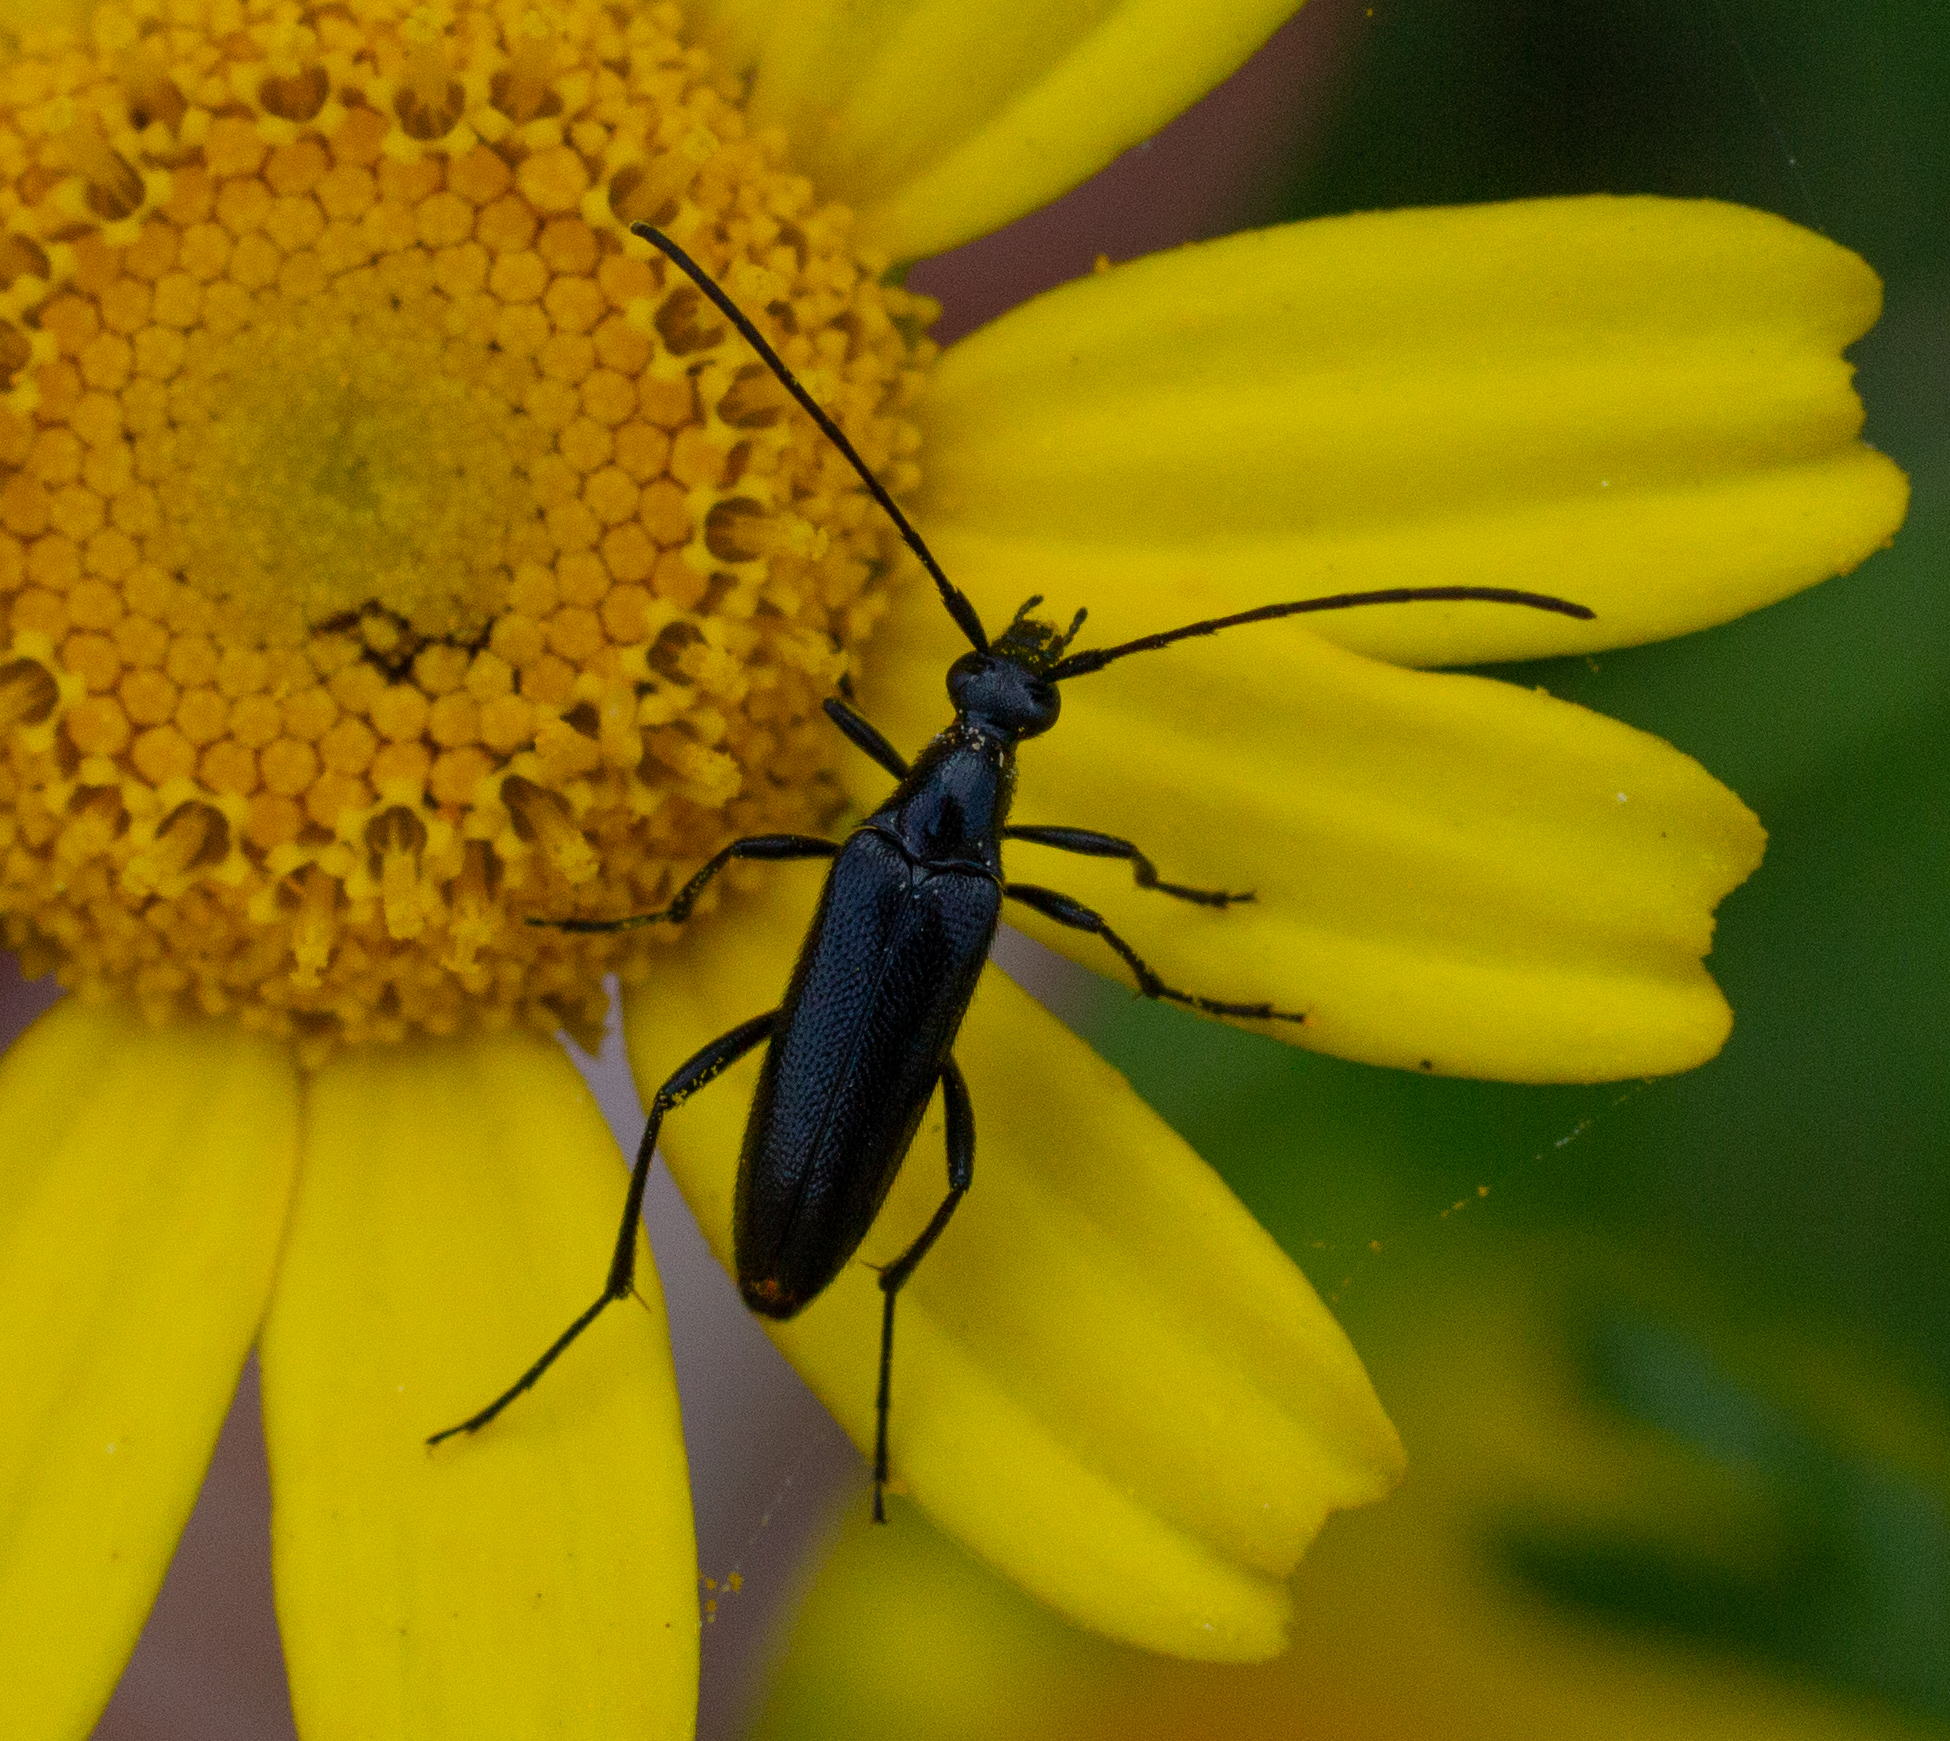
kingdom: Animalia
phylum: Arthropoda
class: Insecta
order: Coleoptera
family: Cerambycidae
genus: Stenurella
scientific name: Stenurella nigra
